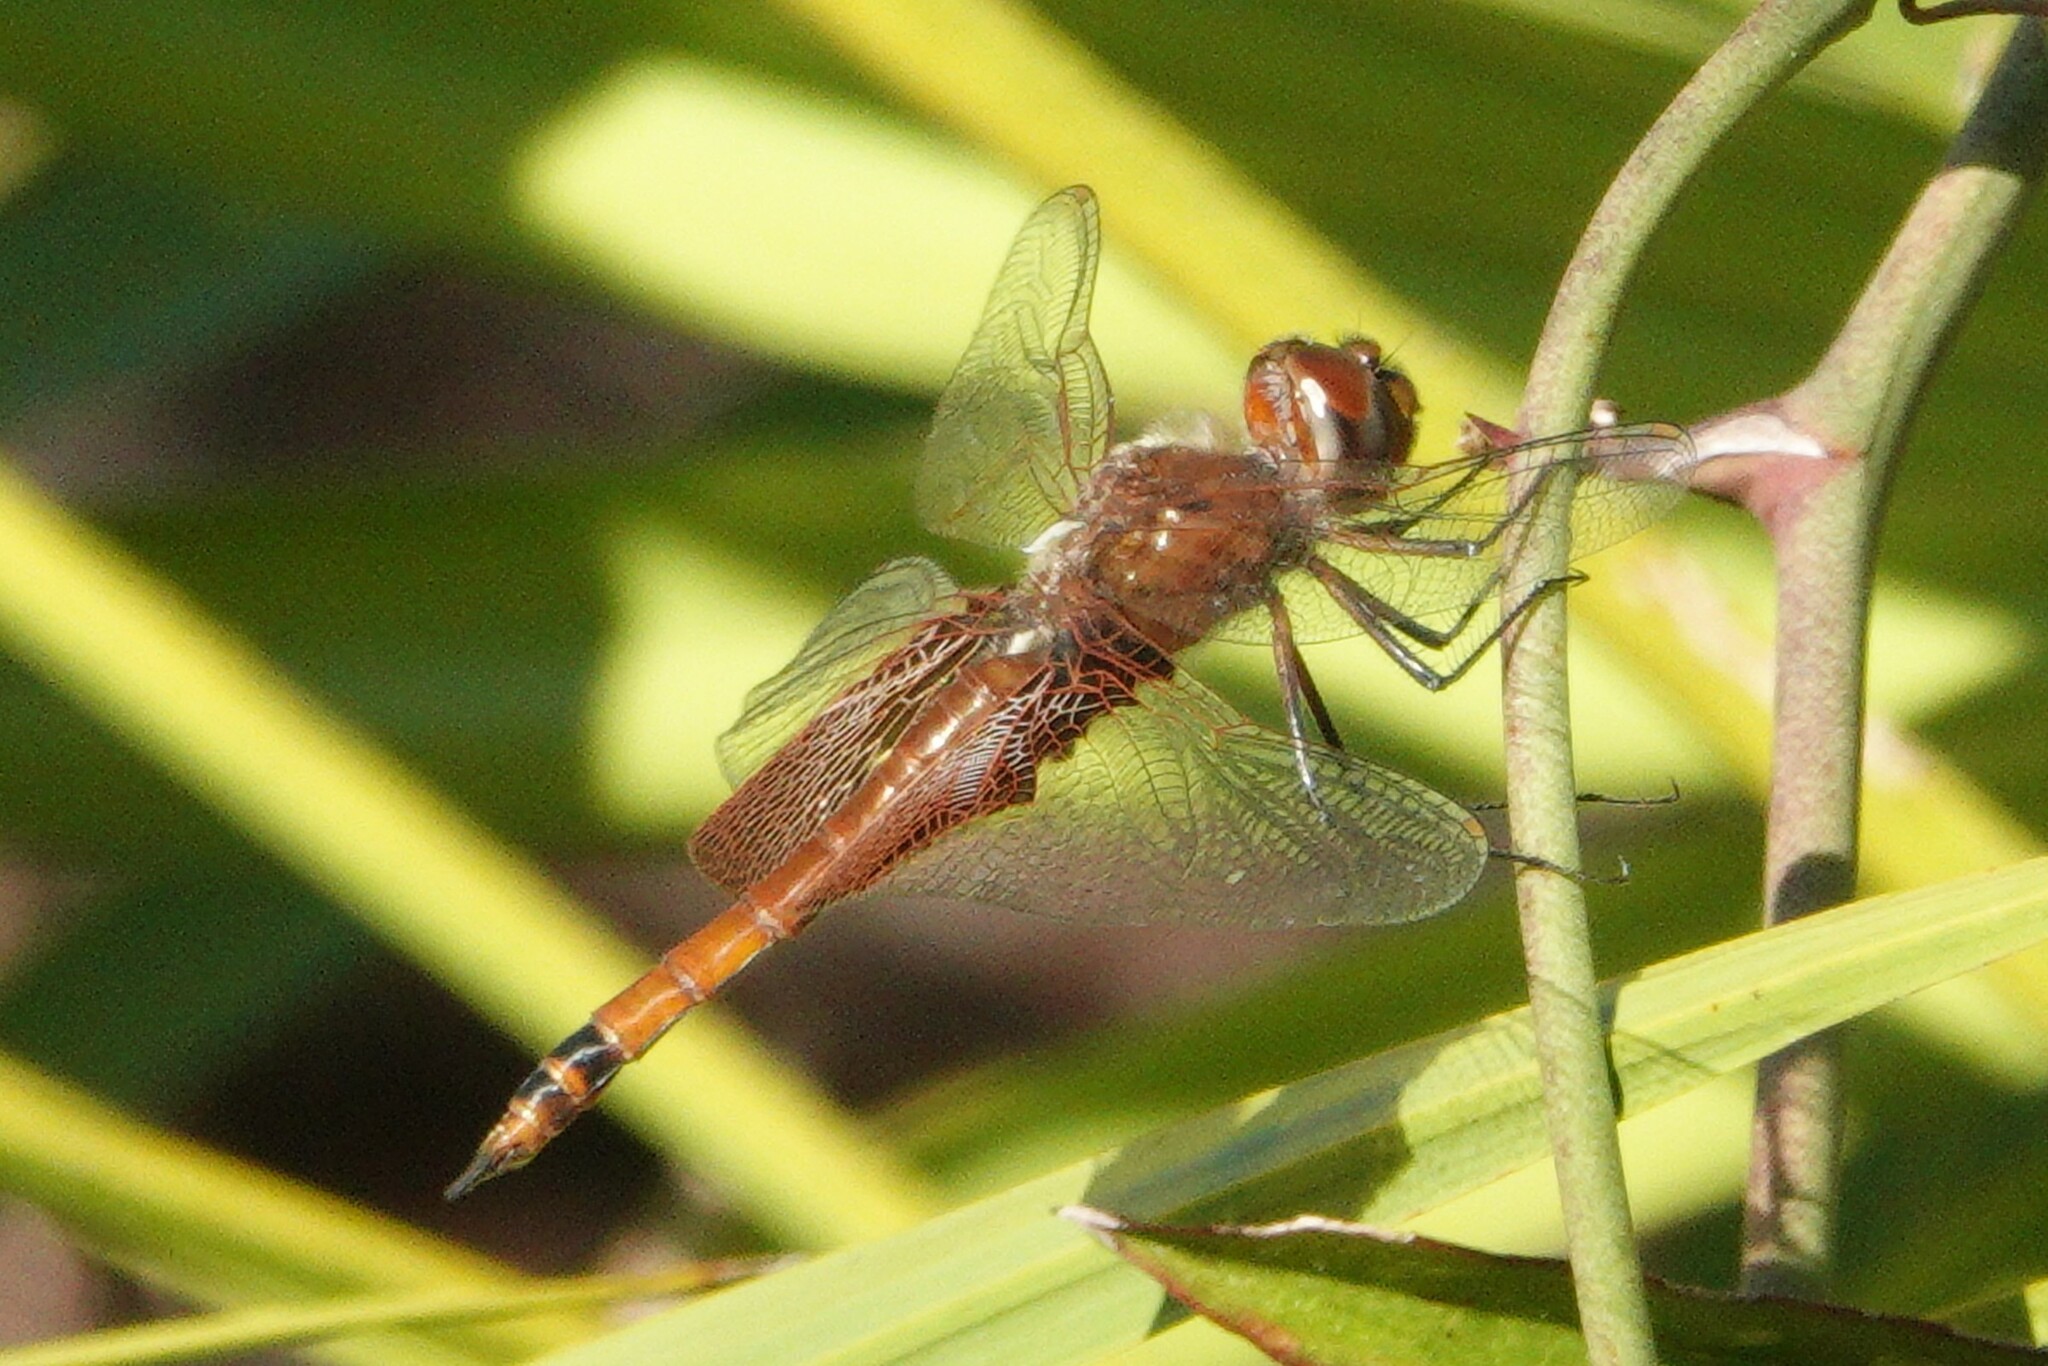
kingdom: Animalia
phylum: Arthropoda
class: Insecta
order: Odonata
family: Libellulidae
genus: Tramea
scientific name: Tramea carolina
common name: Carolina saddlebags
